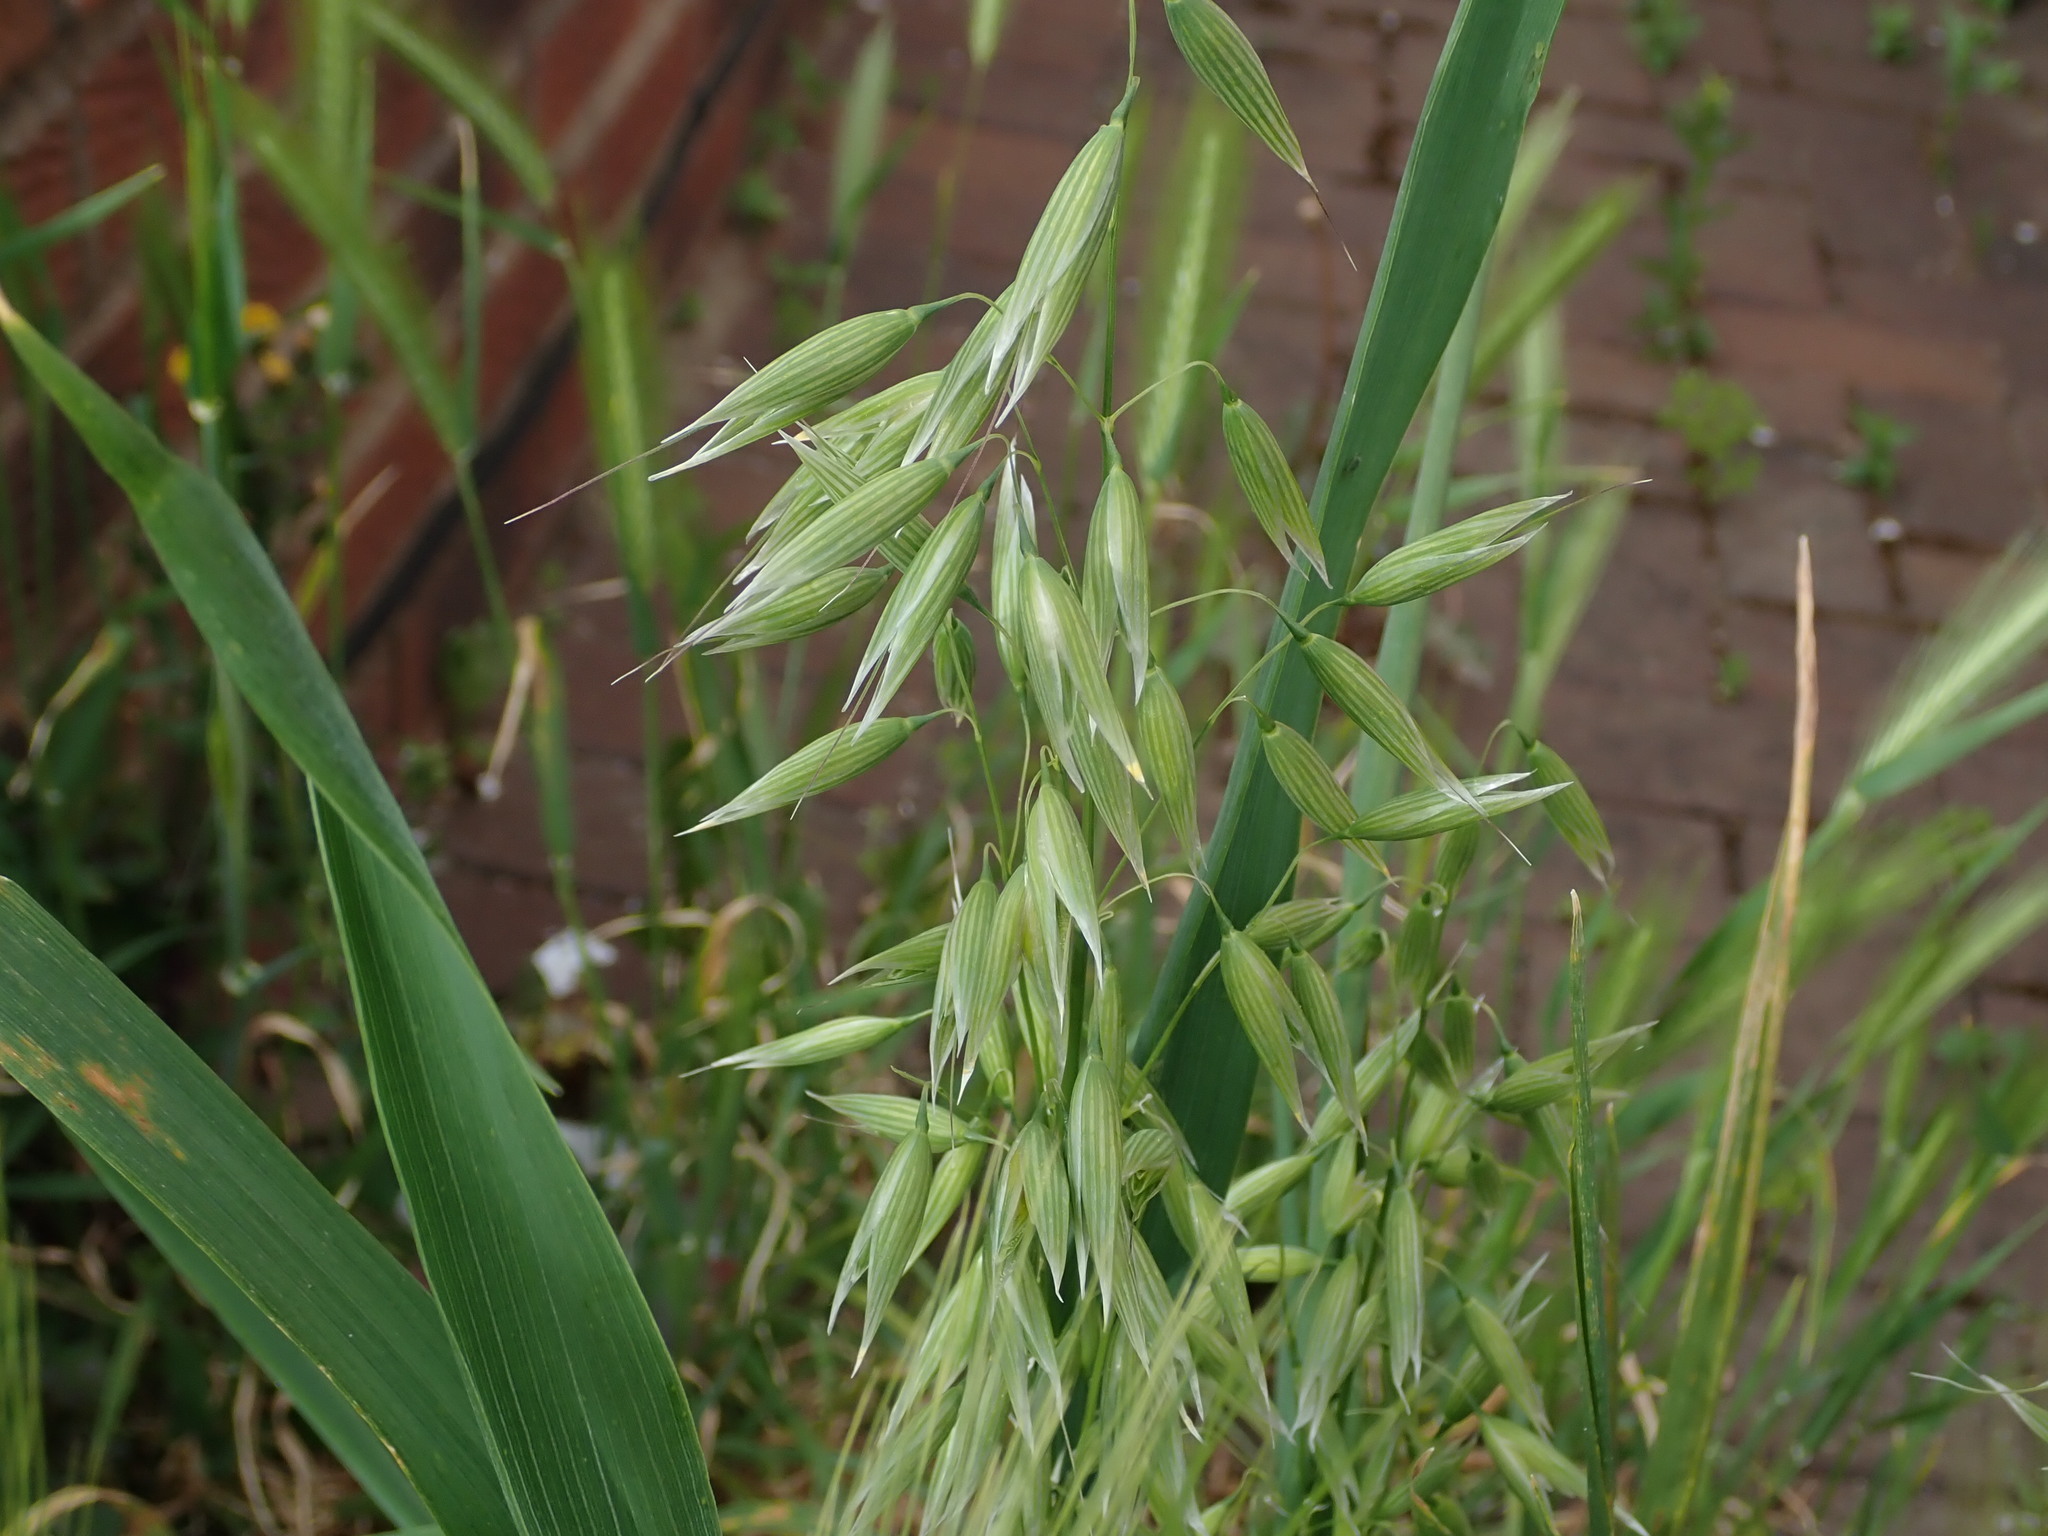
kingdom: Plantae
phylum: Tracheophyta
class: Liliopsida
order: Poales
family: Poaceae
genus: Avena
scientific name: Avena sativa
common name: Oat
